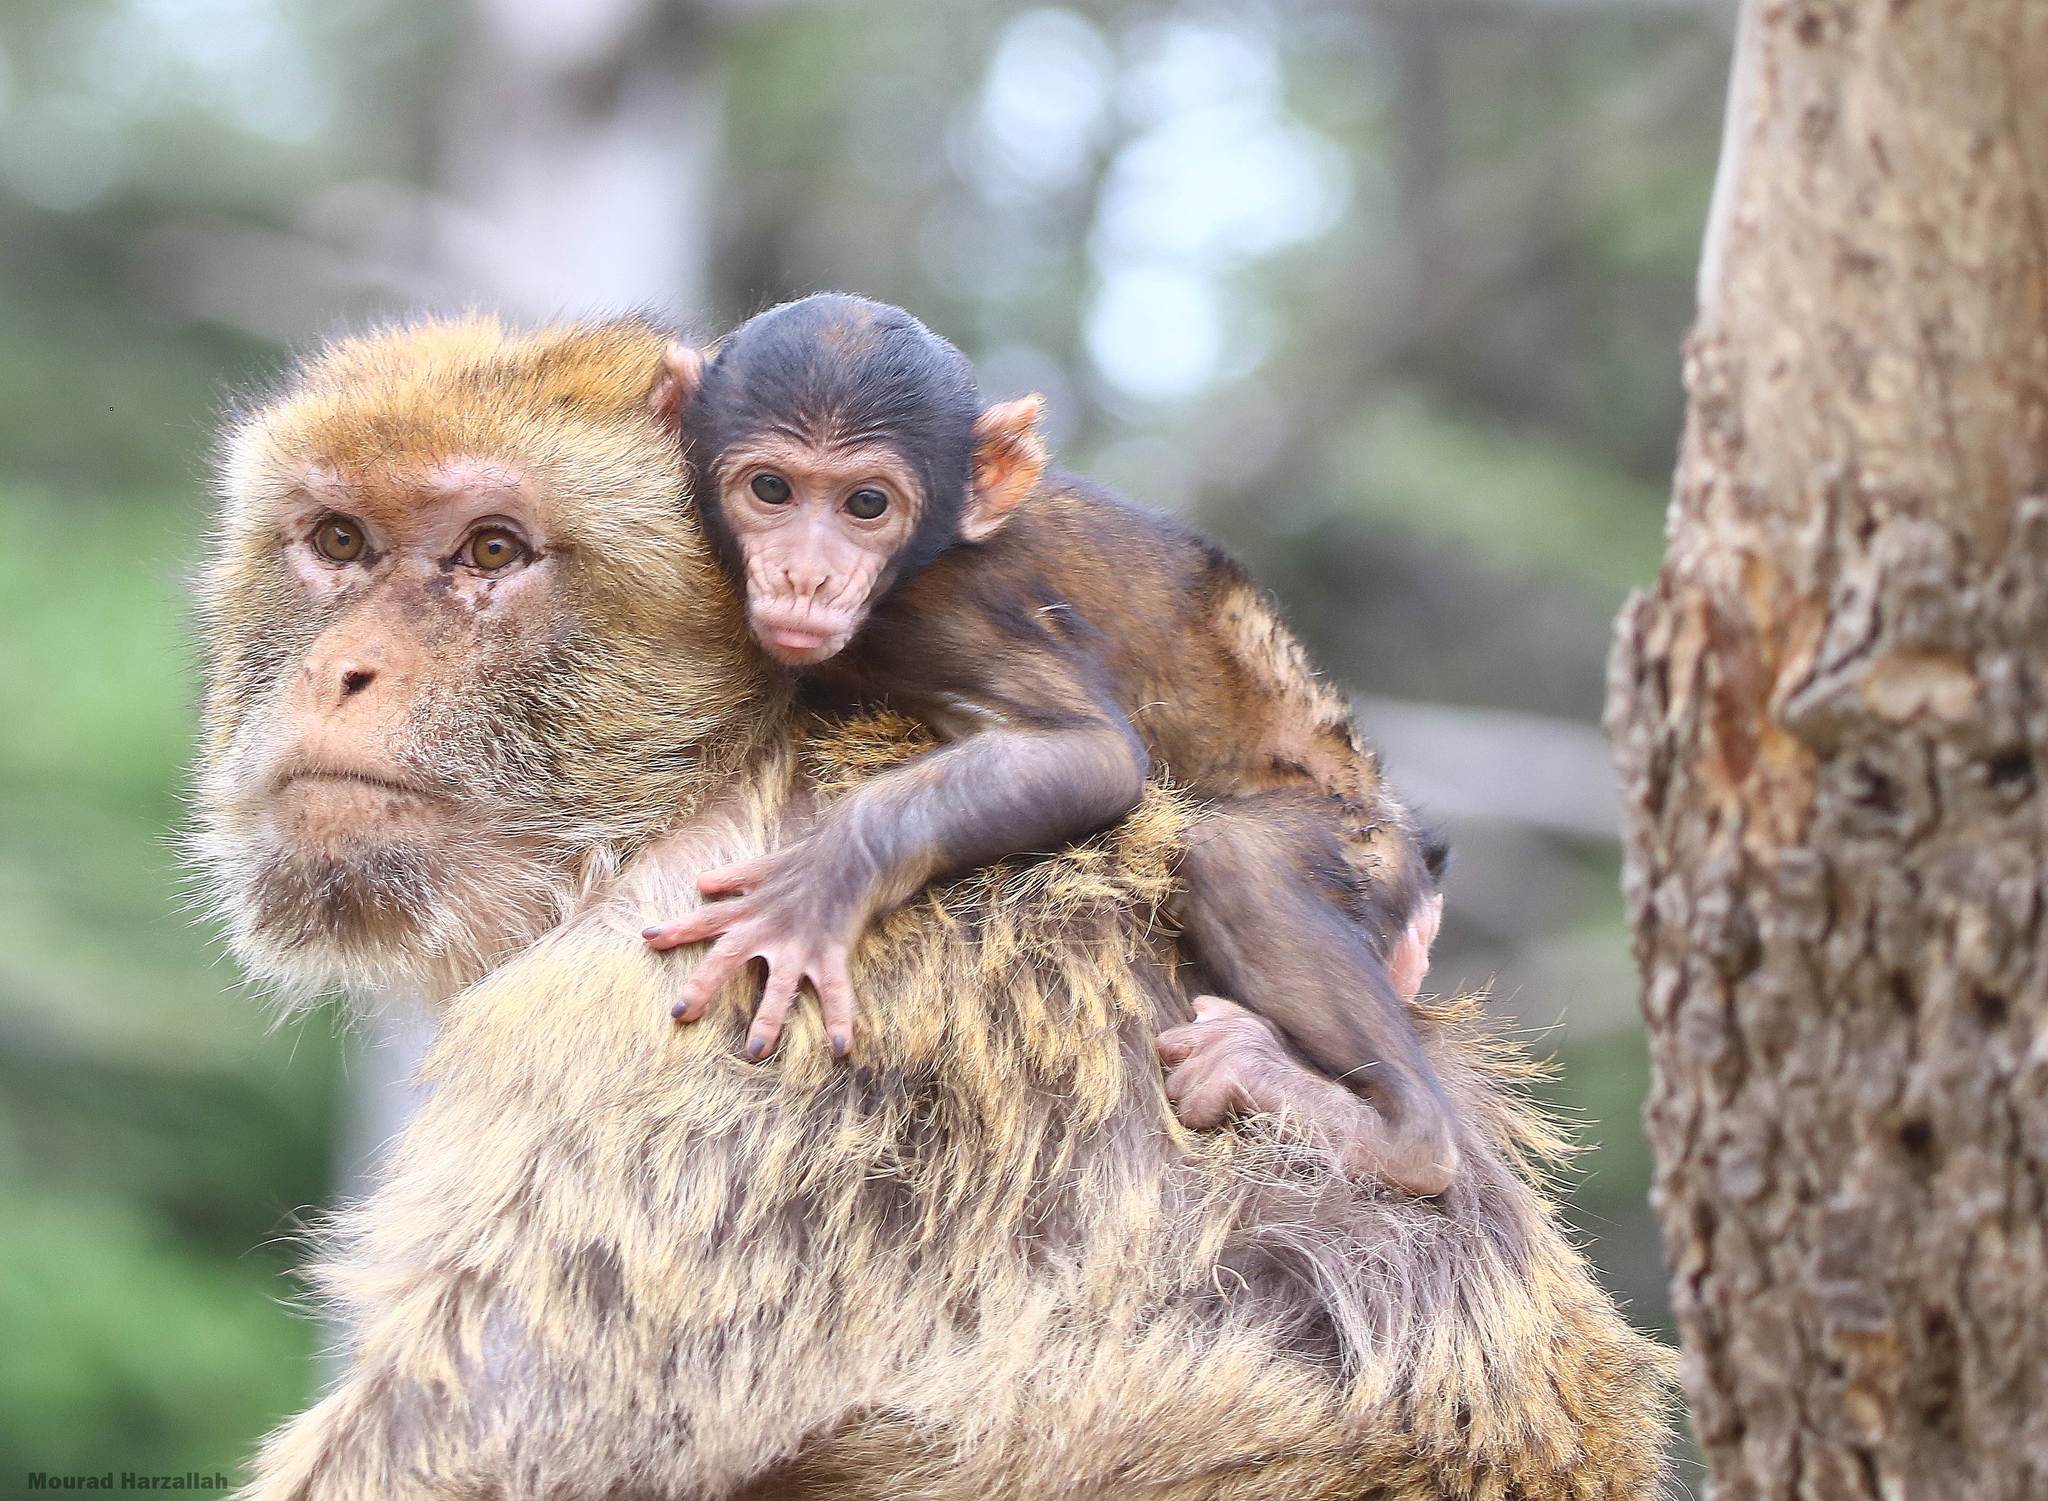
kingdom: Animalia
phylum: Chordata
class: Mammalia
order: Primates
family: Cercopithecidae
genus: Macaca
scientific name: Macaca sylvanus
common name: Barbary macaque
